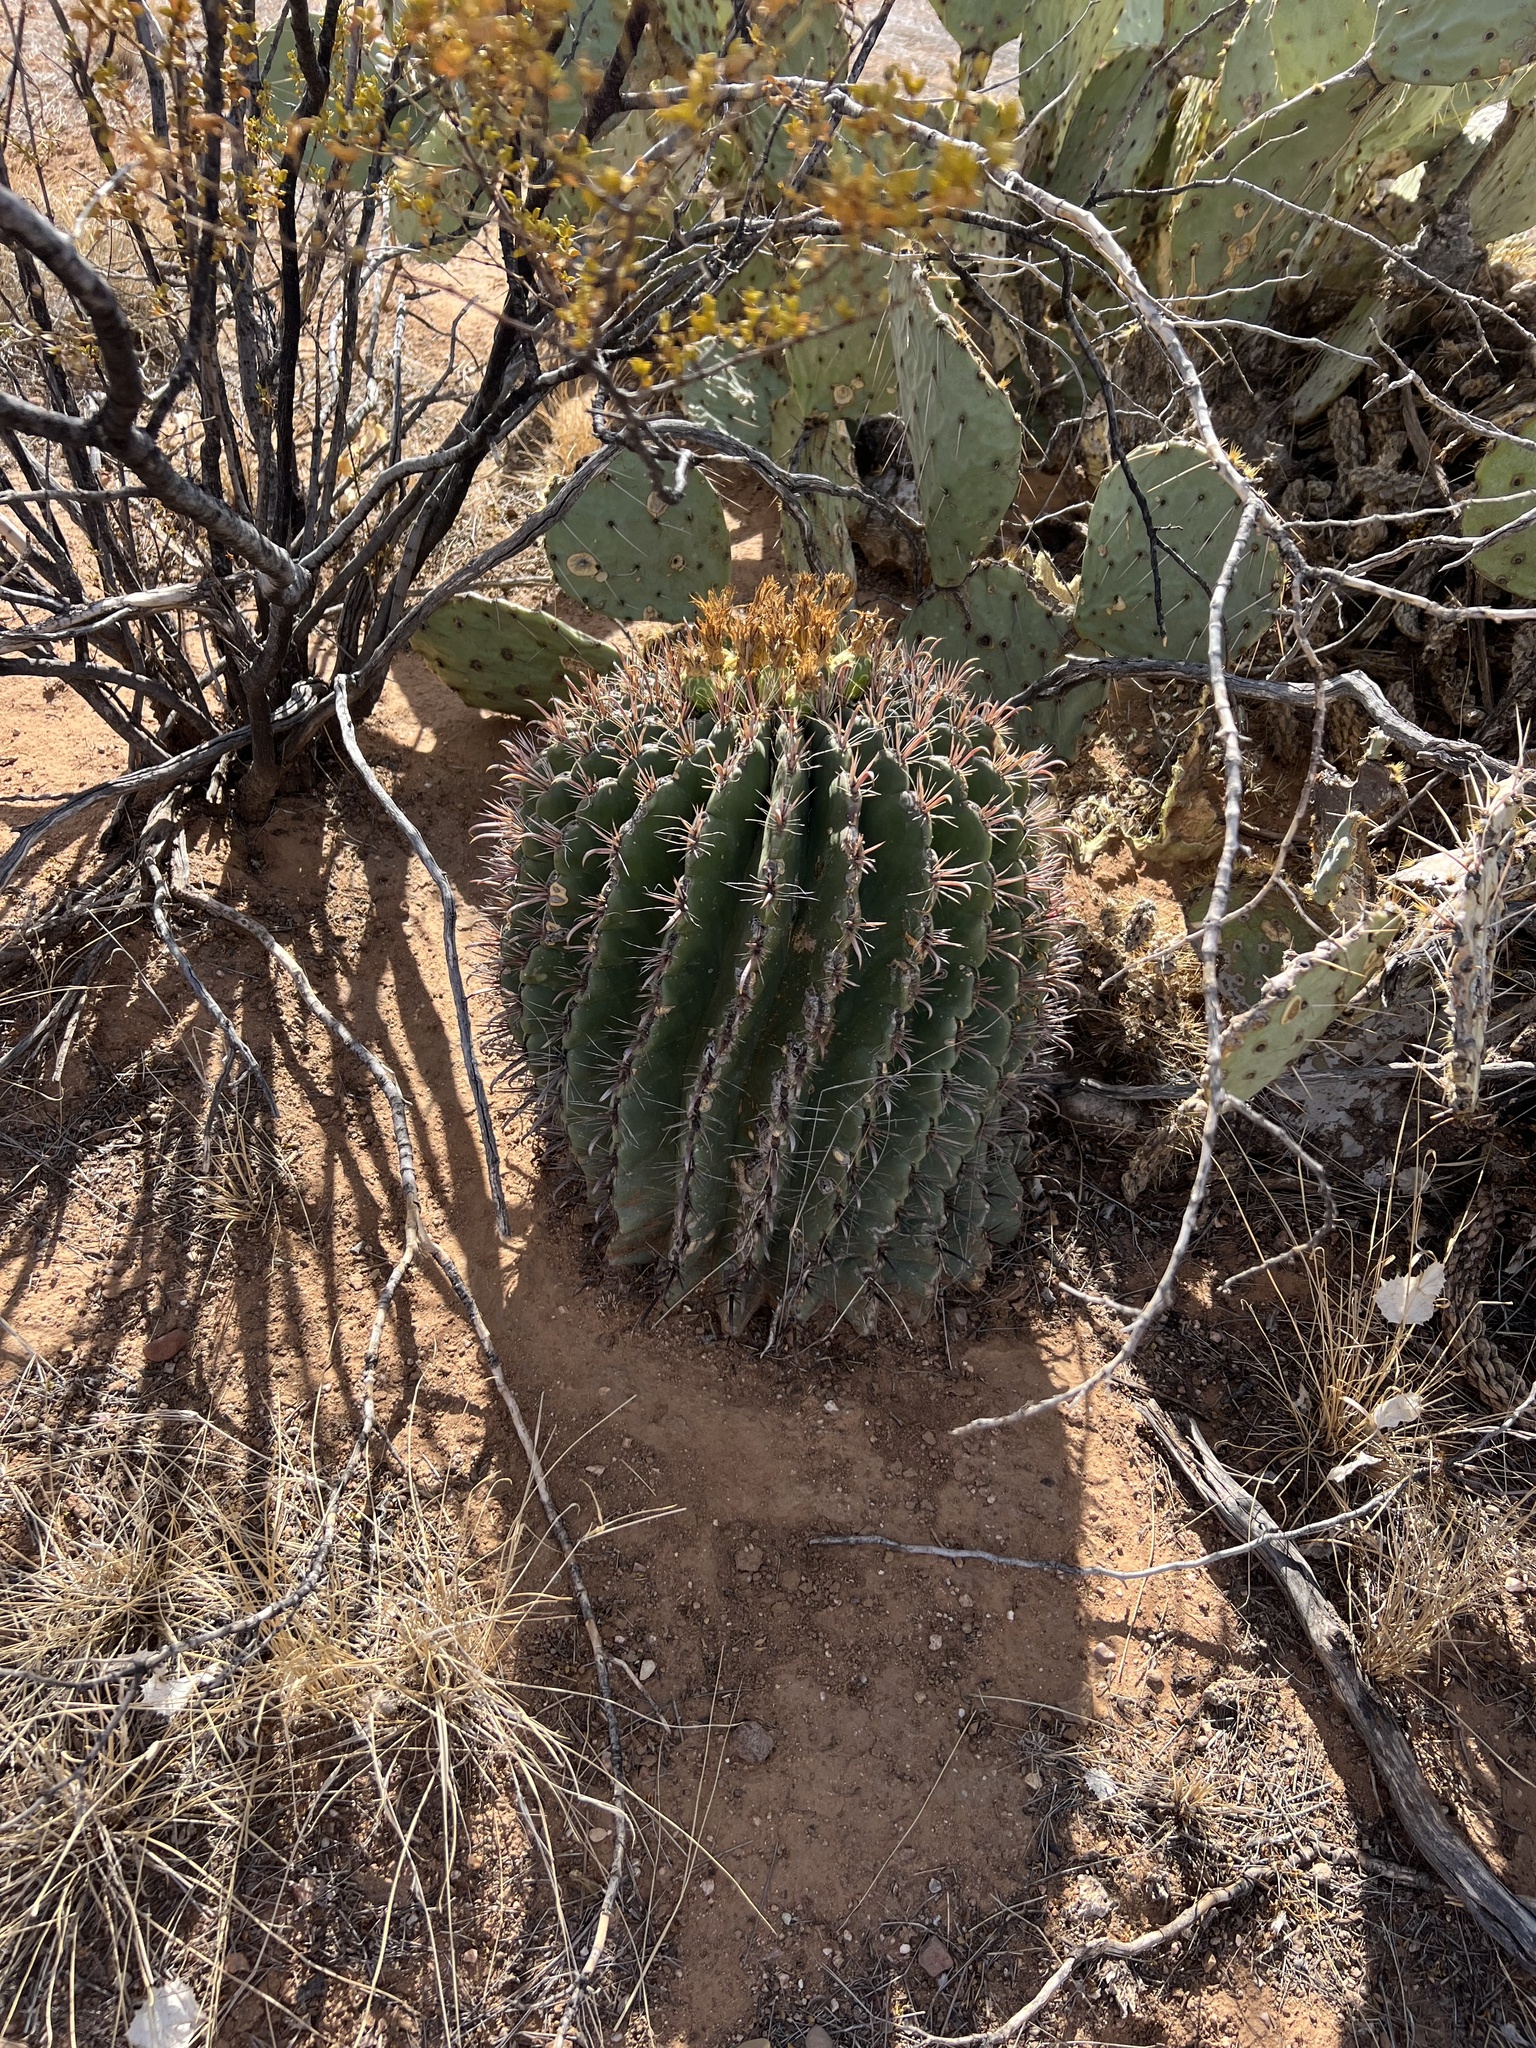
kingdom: Plantae
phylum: Tracheophyta
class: Magnoliopsida
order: Caryophyllales
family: Cactaceae
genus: Ferocactus
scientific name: Ferocactus wislizeni
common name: Candy barrel cactus
